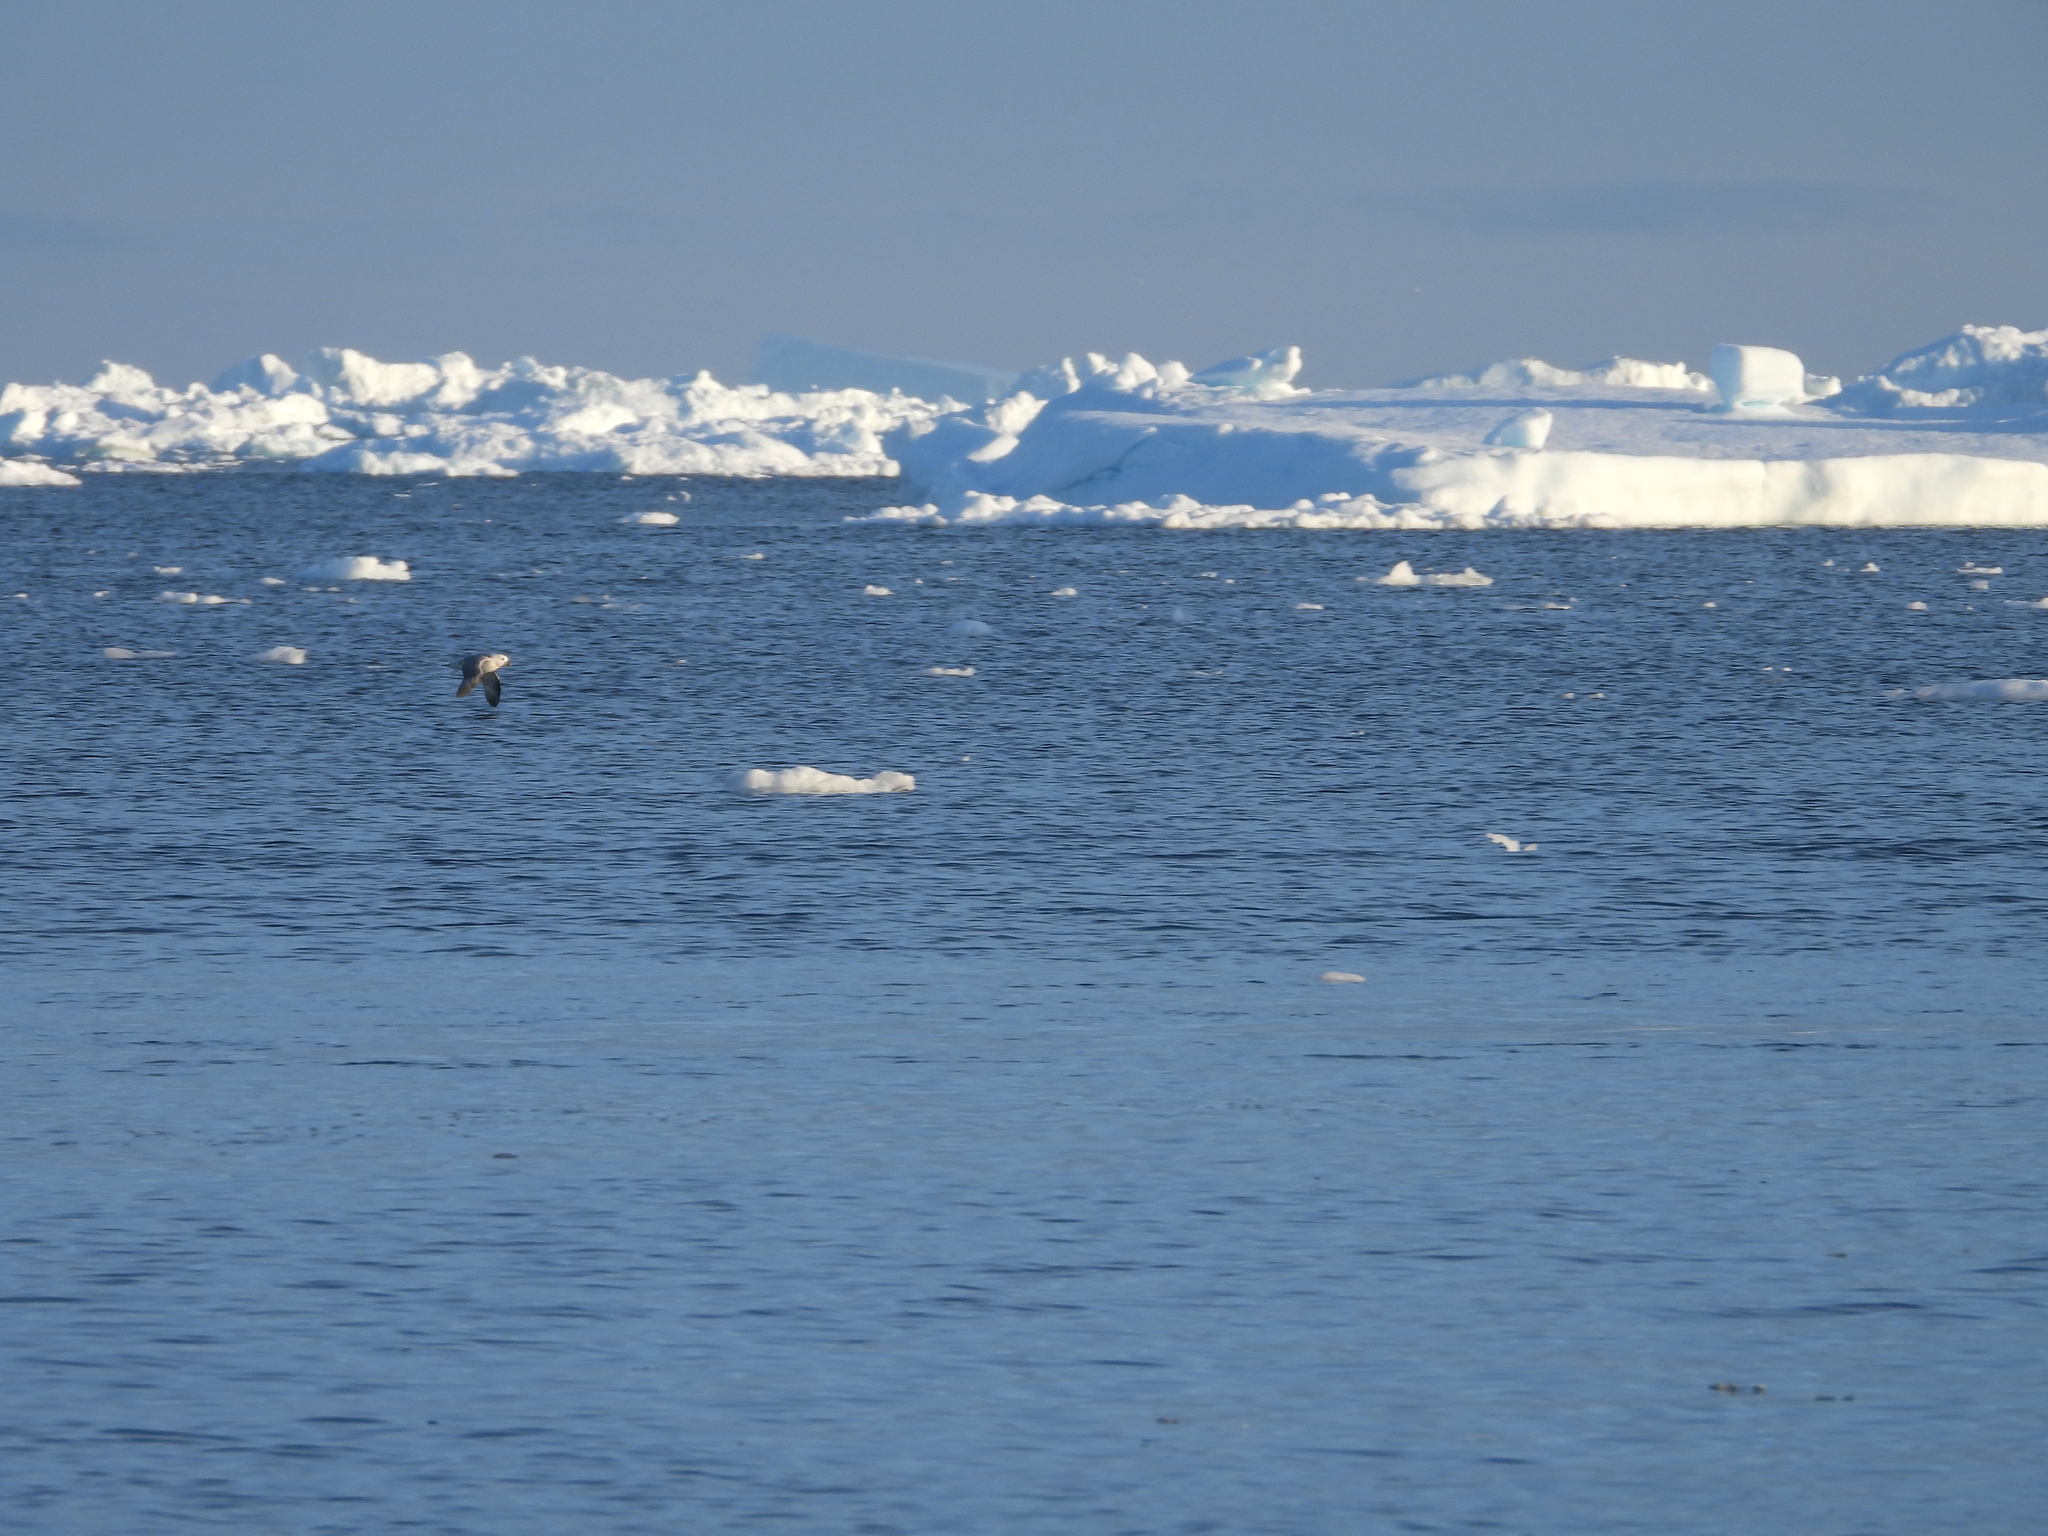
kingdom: Animalia
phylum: Chordata
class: Aves
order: Procellariiformes
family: Procellariidae
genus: Fulmarus
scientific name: Fulmarus glacialis
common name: Northern fulmar
